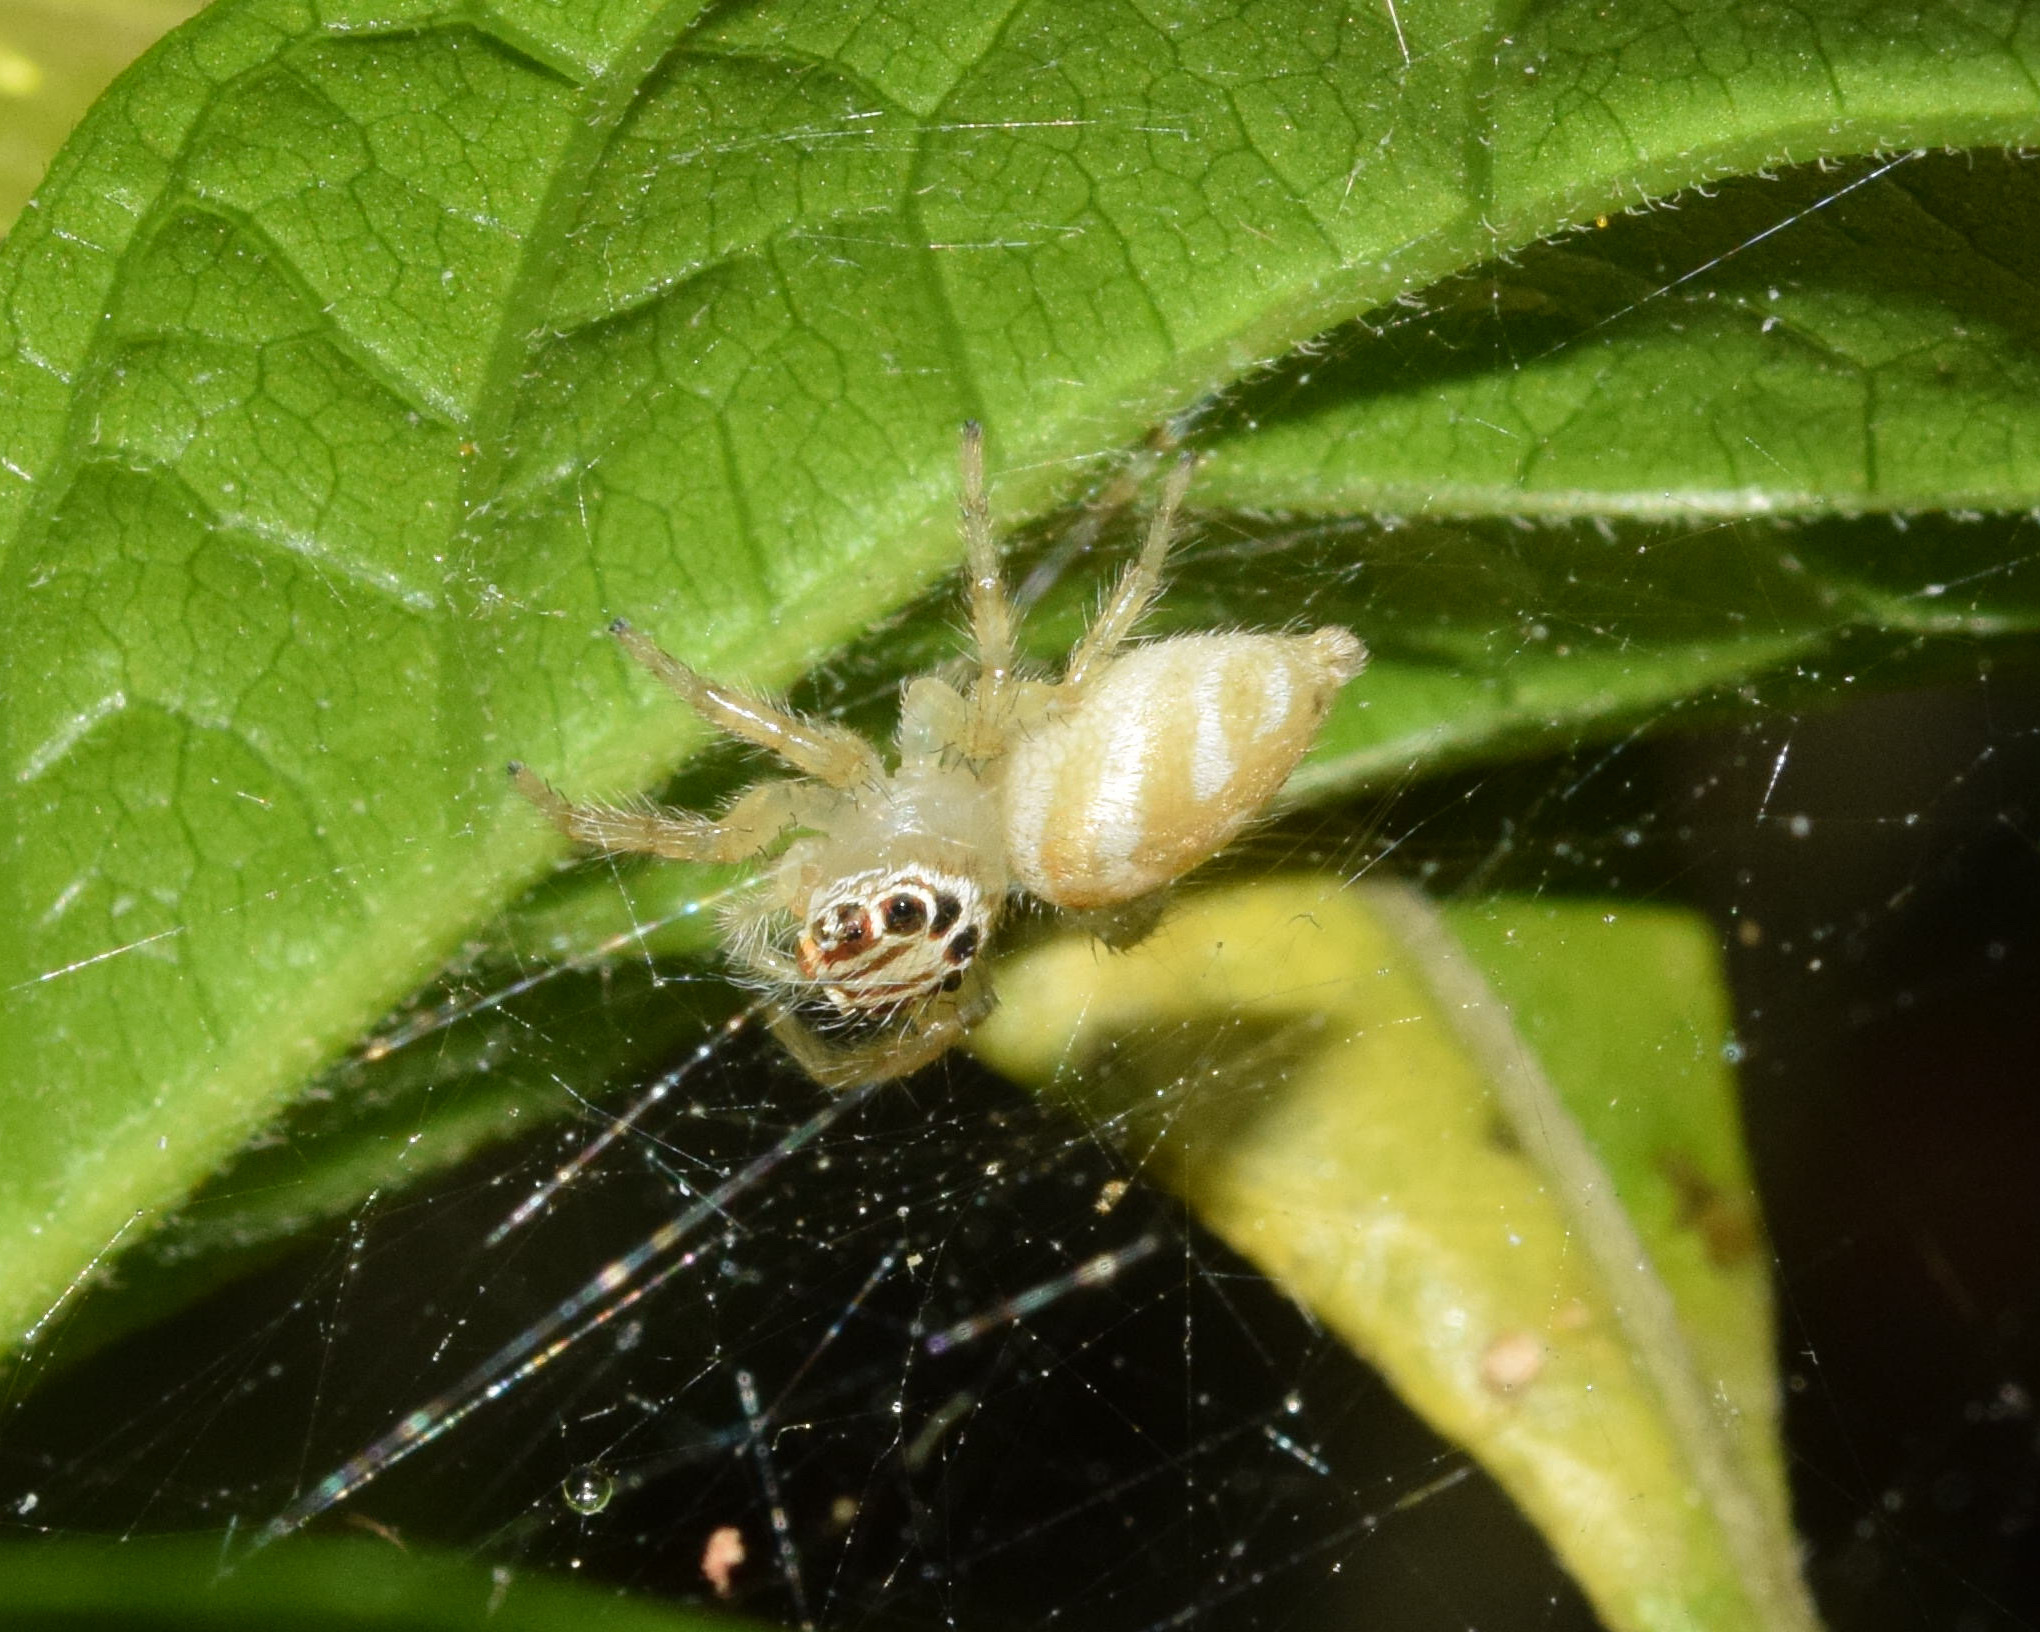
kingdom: Animalia
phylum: Arthropoda
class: Arachnida
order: Araneae
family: Salticidae
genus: Brancus
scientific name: Brancus mustelus
